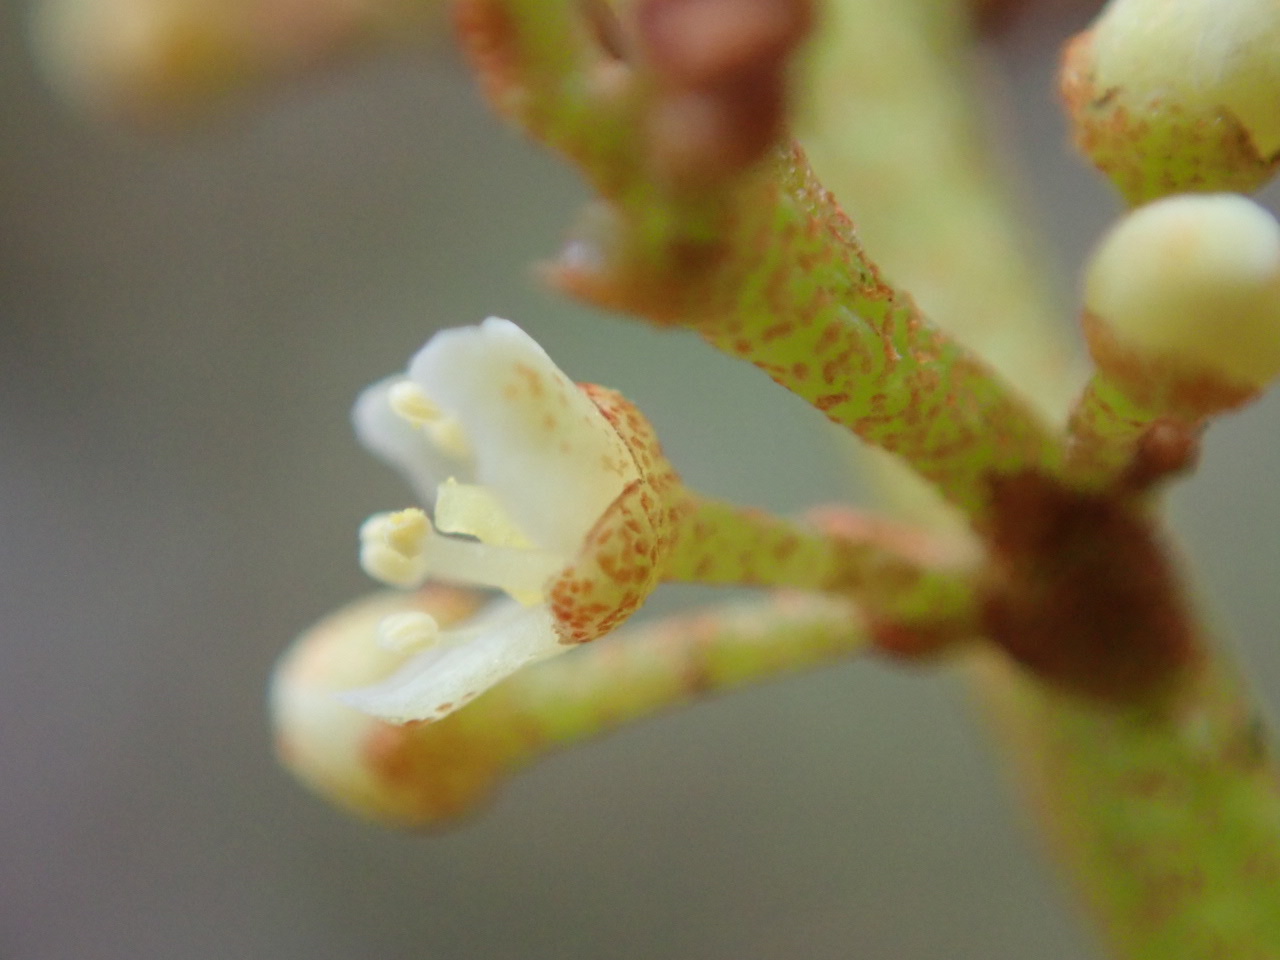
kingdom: Plantae
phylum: Tracheophyta
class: Magnoliopsida
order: Sapindales
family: Anacardiaceae
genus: Campnosperma
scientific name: Campnosperma seychellarum
